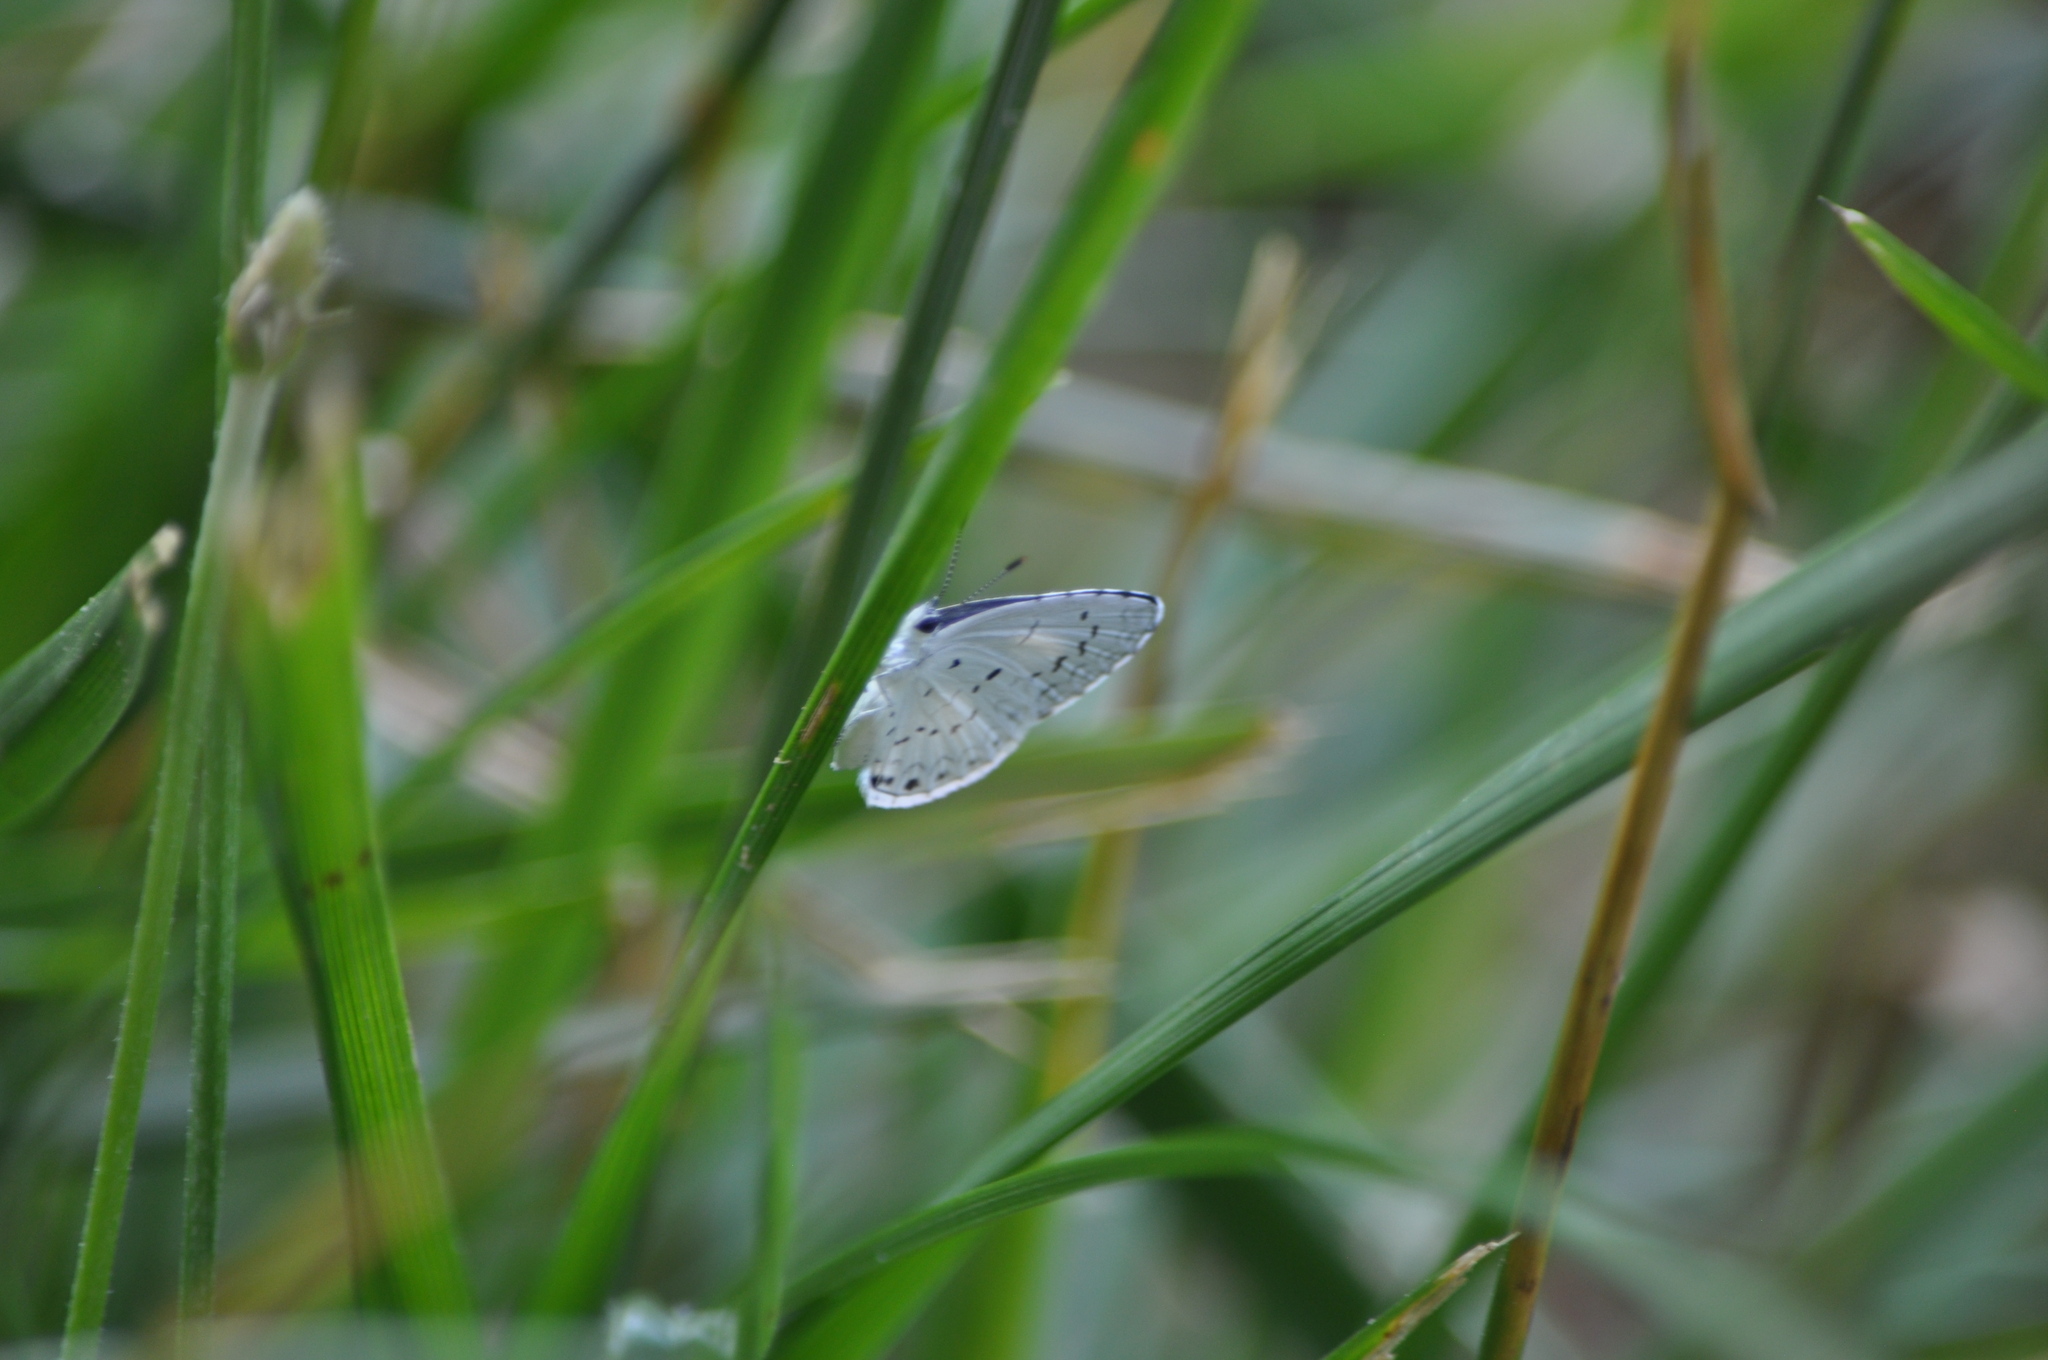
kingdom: Animalia
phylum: Arthropoda
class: Insecta
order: Lepidoptera
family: Lycaenidae
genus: Cyaniris
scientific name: Cyaniris neglecta
